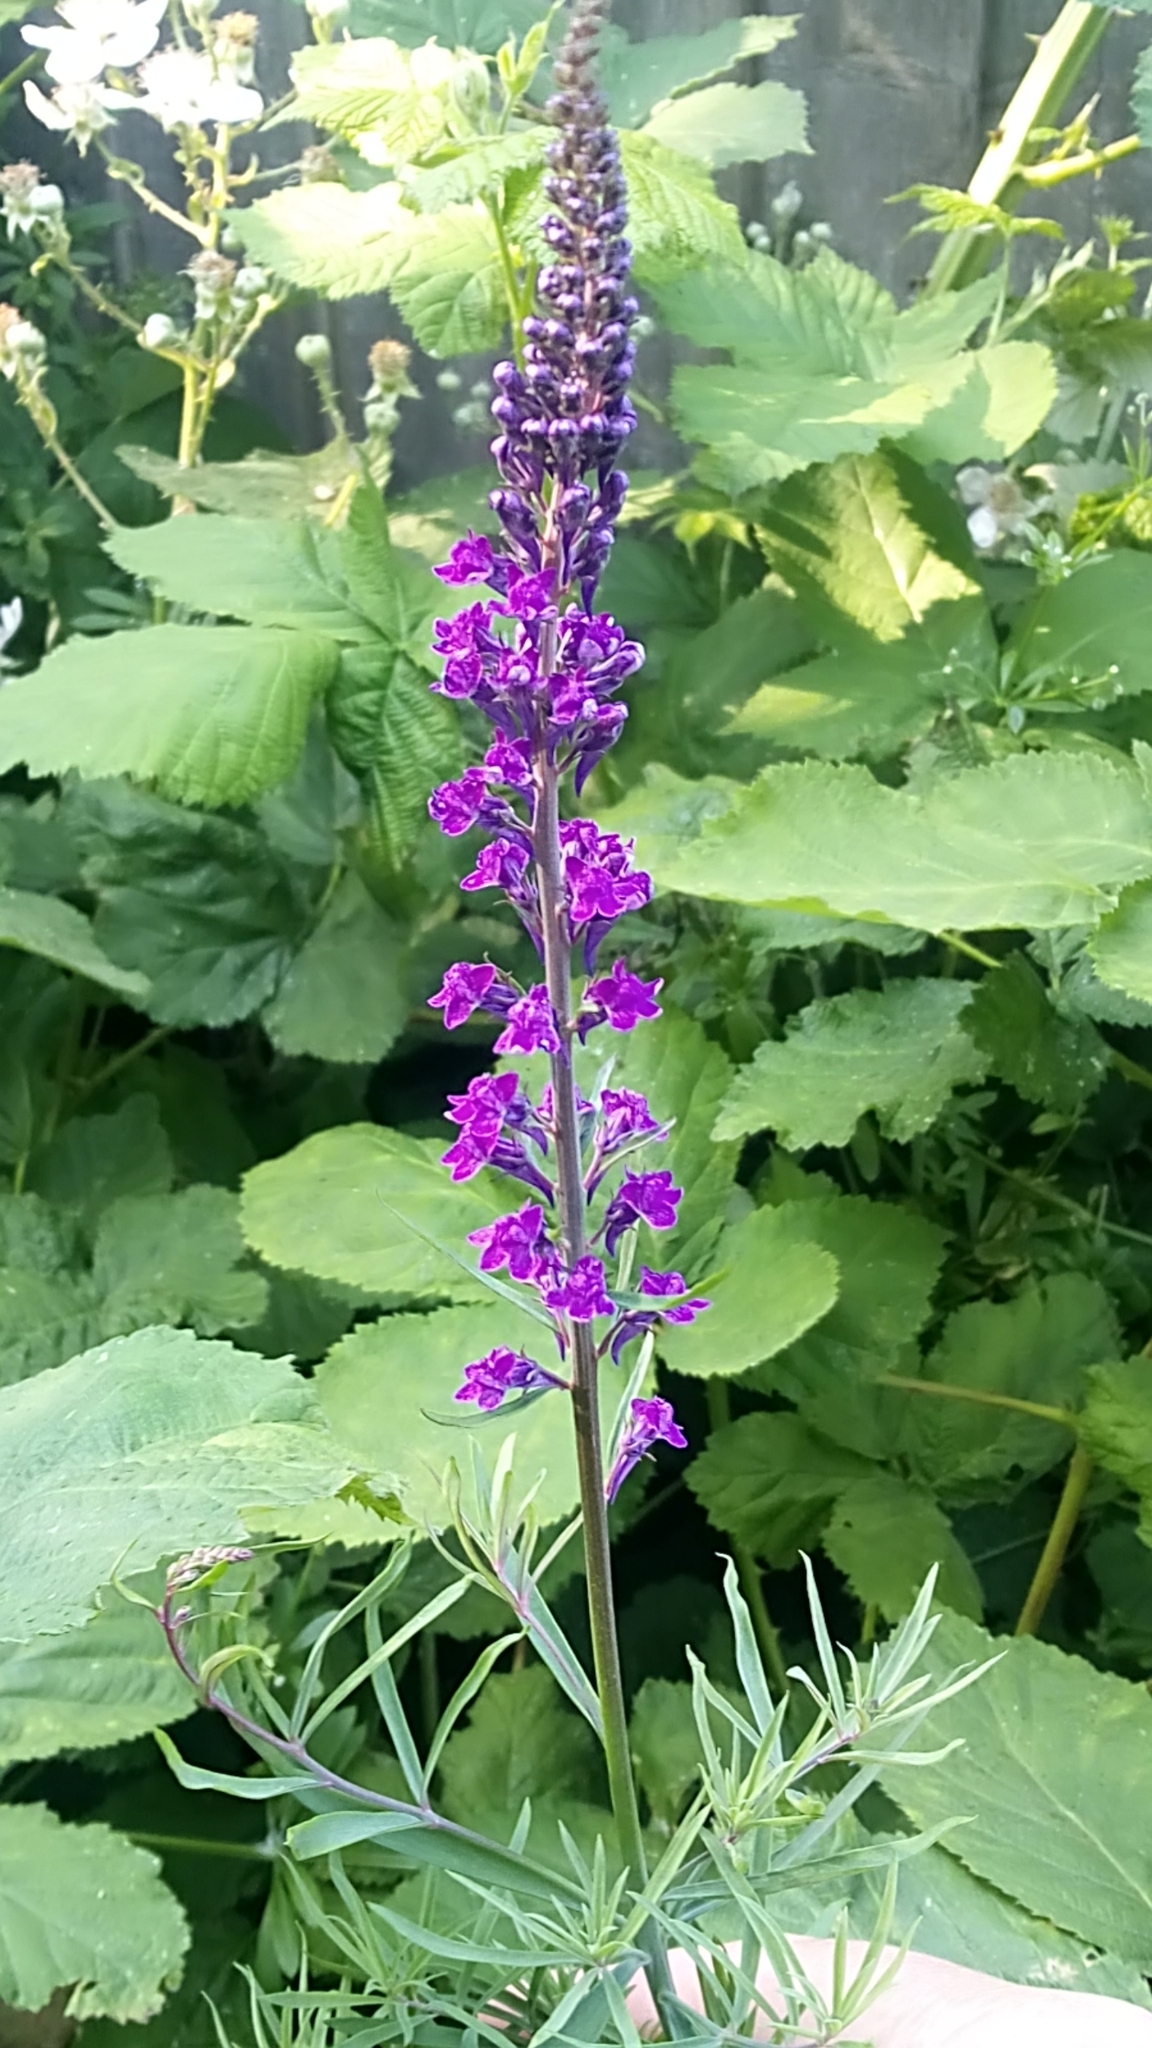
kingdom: Plantae
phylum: Tracheophyta
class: Magnoliopsida
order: Lamiales
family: Plantaginaceae
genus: Linaria
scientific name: Linaria purpurea
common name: Purple toadflax
